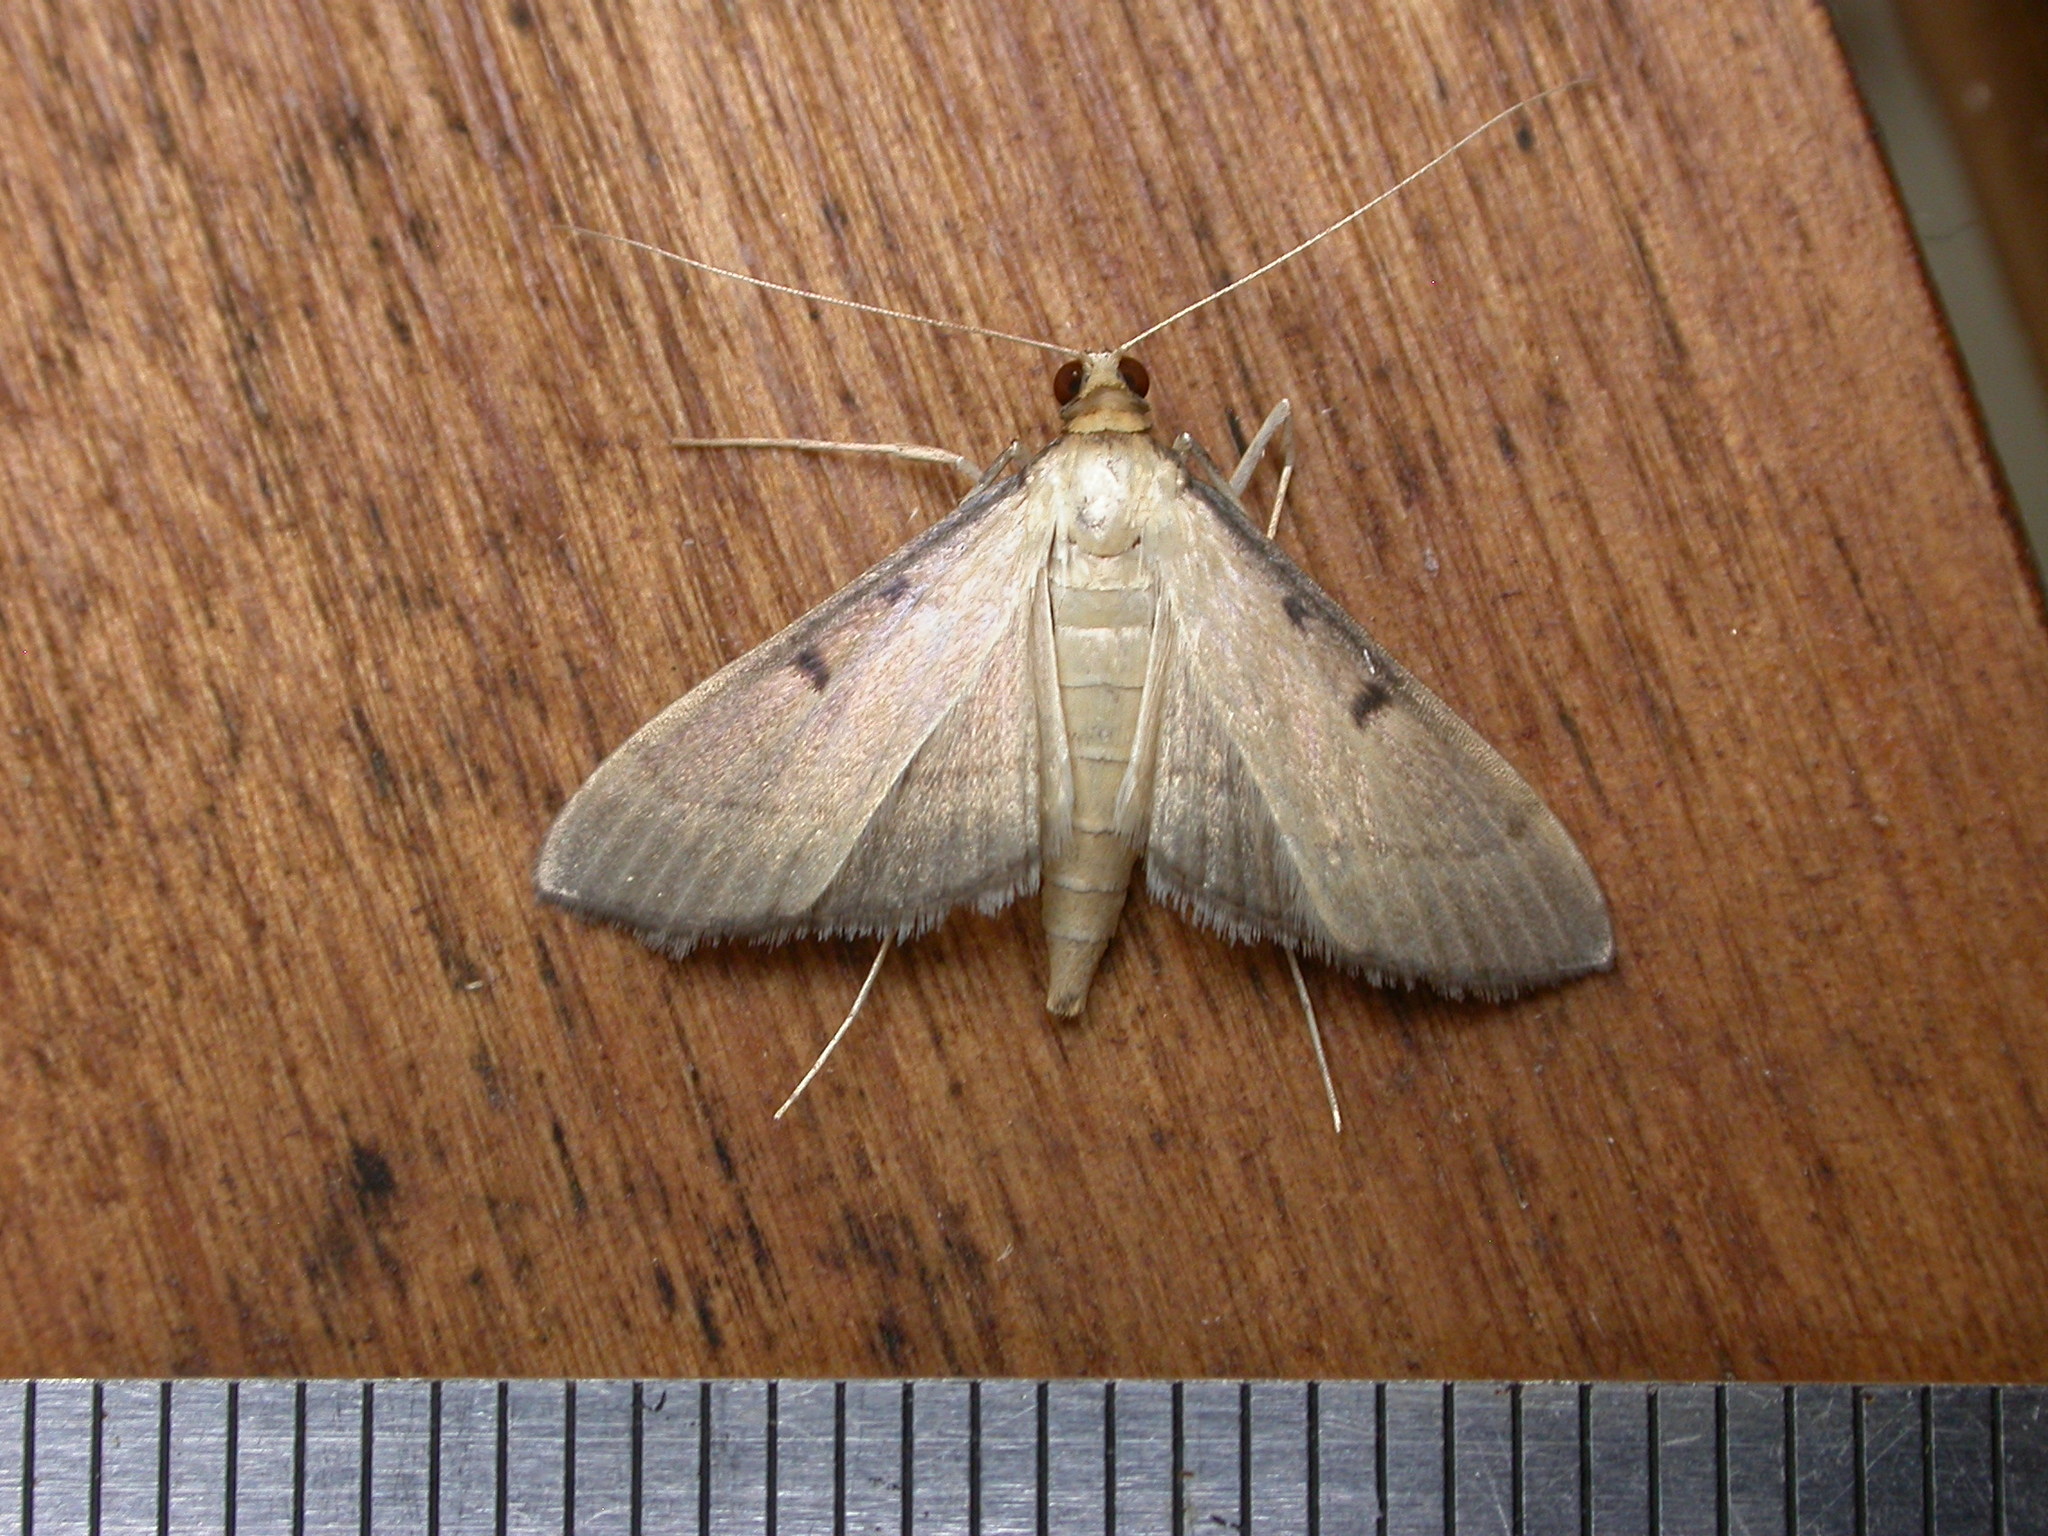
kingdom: Animalia
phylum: Arthropoda
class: Insecta
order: Lepidoptera
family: Crambidae
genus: Bradina
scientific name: Bradina admixtalis
